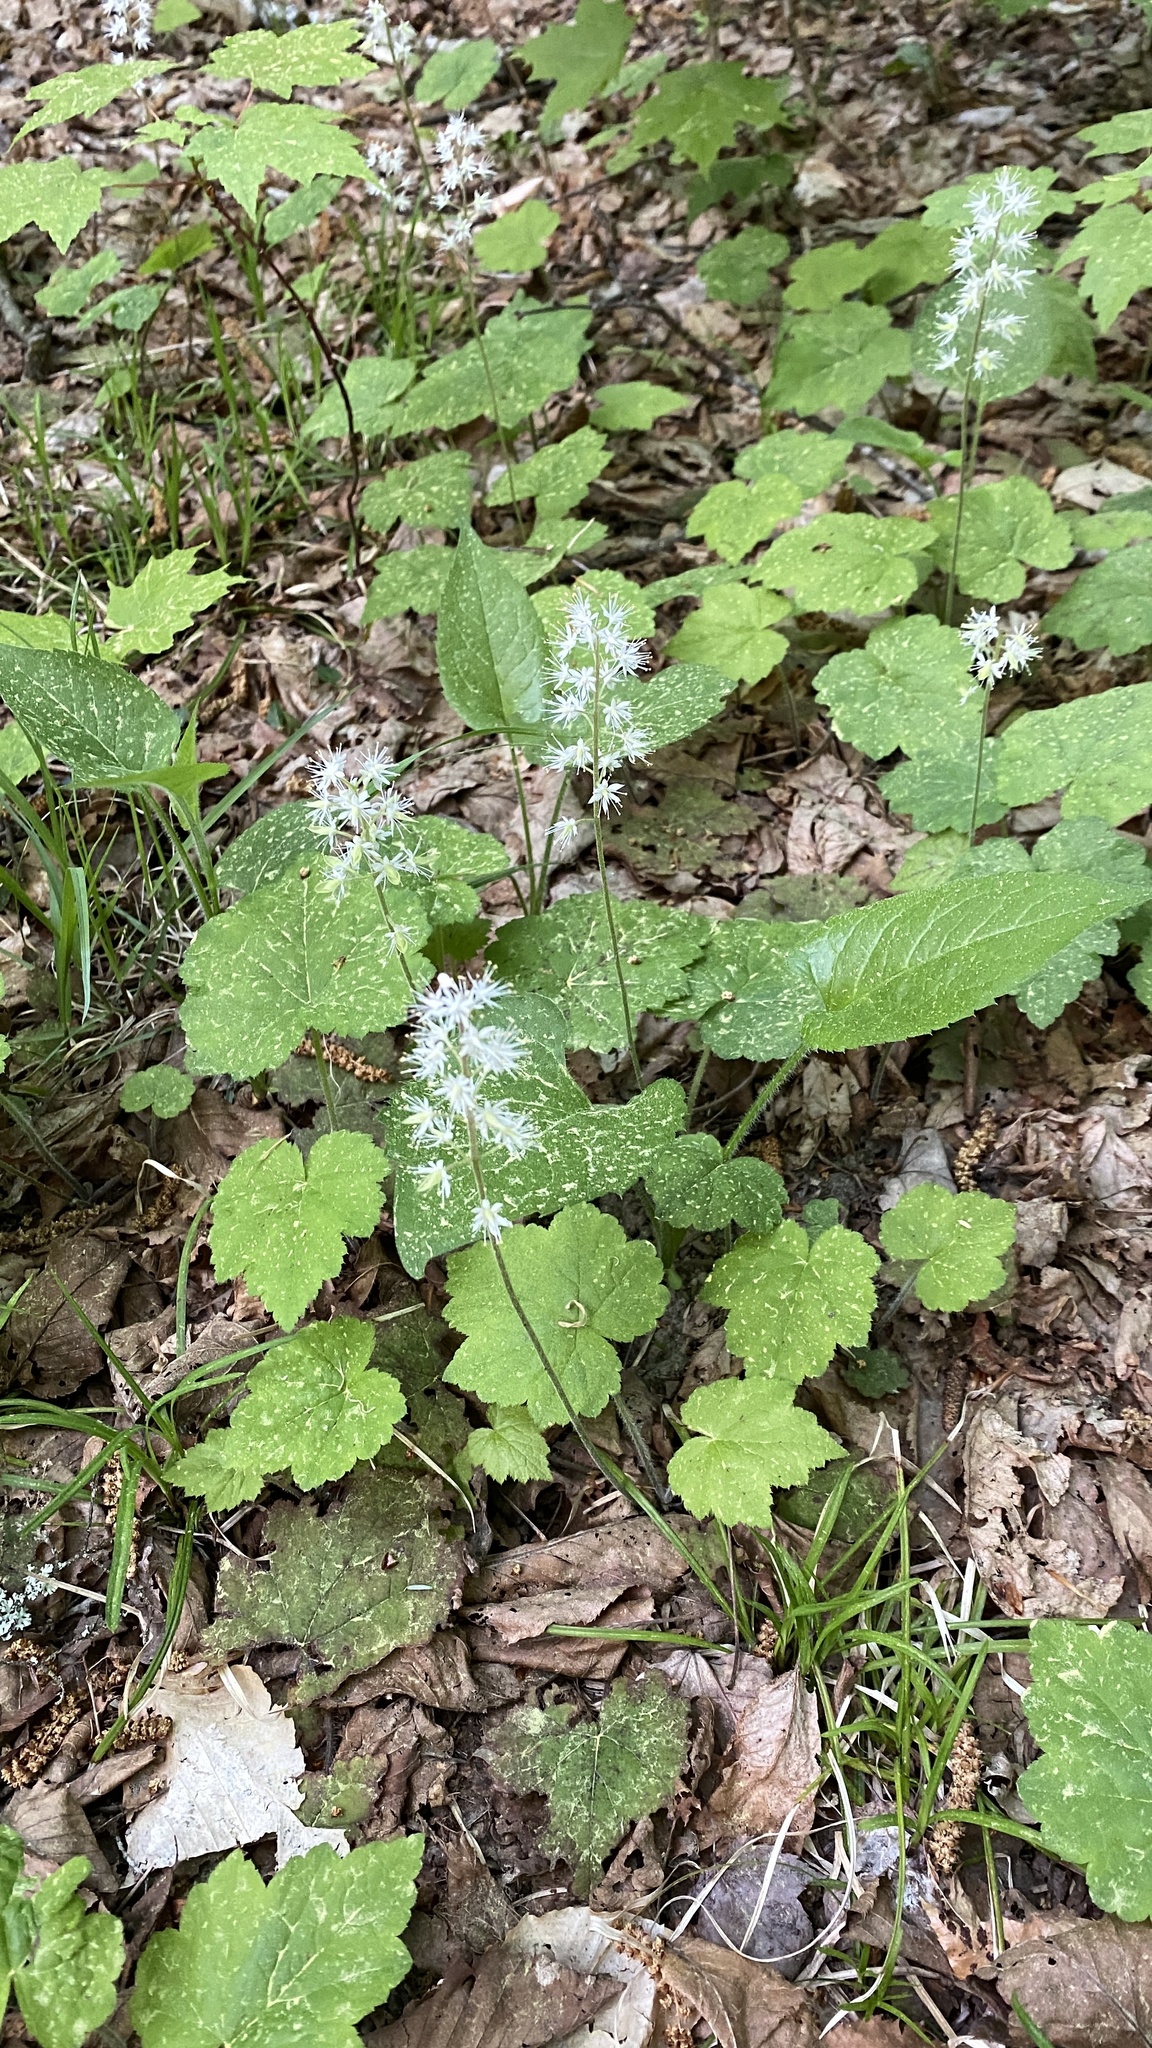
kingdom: Plantae
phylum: Tracheophyta
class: Magnoliopsida
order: Saxifragales
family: Saxifragaceae
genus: Tiarella
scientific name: Tiarella stolonifera
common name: Stoloniferous foamflower
